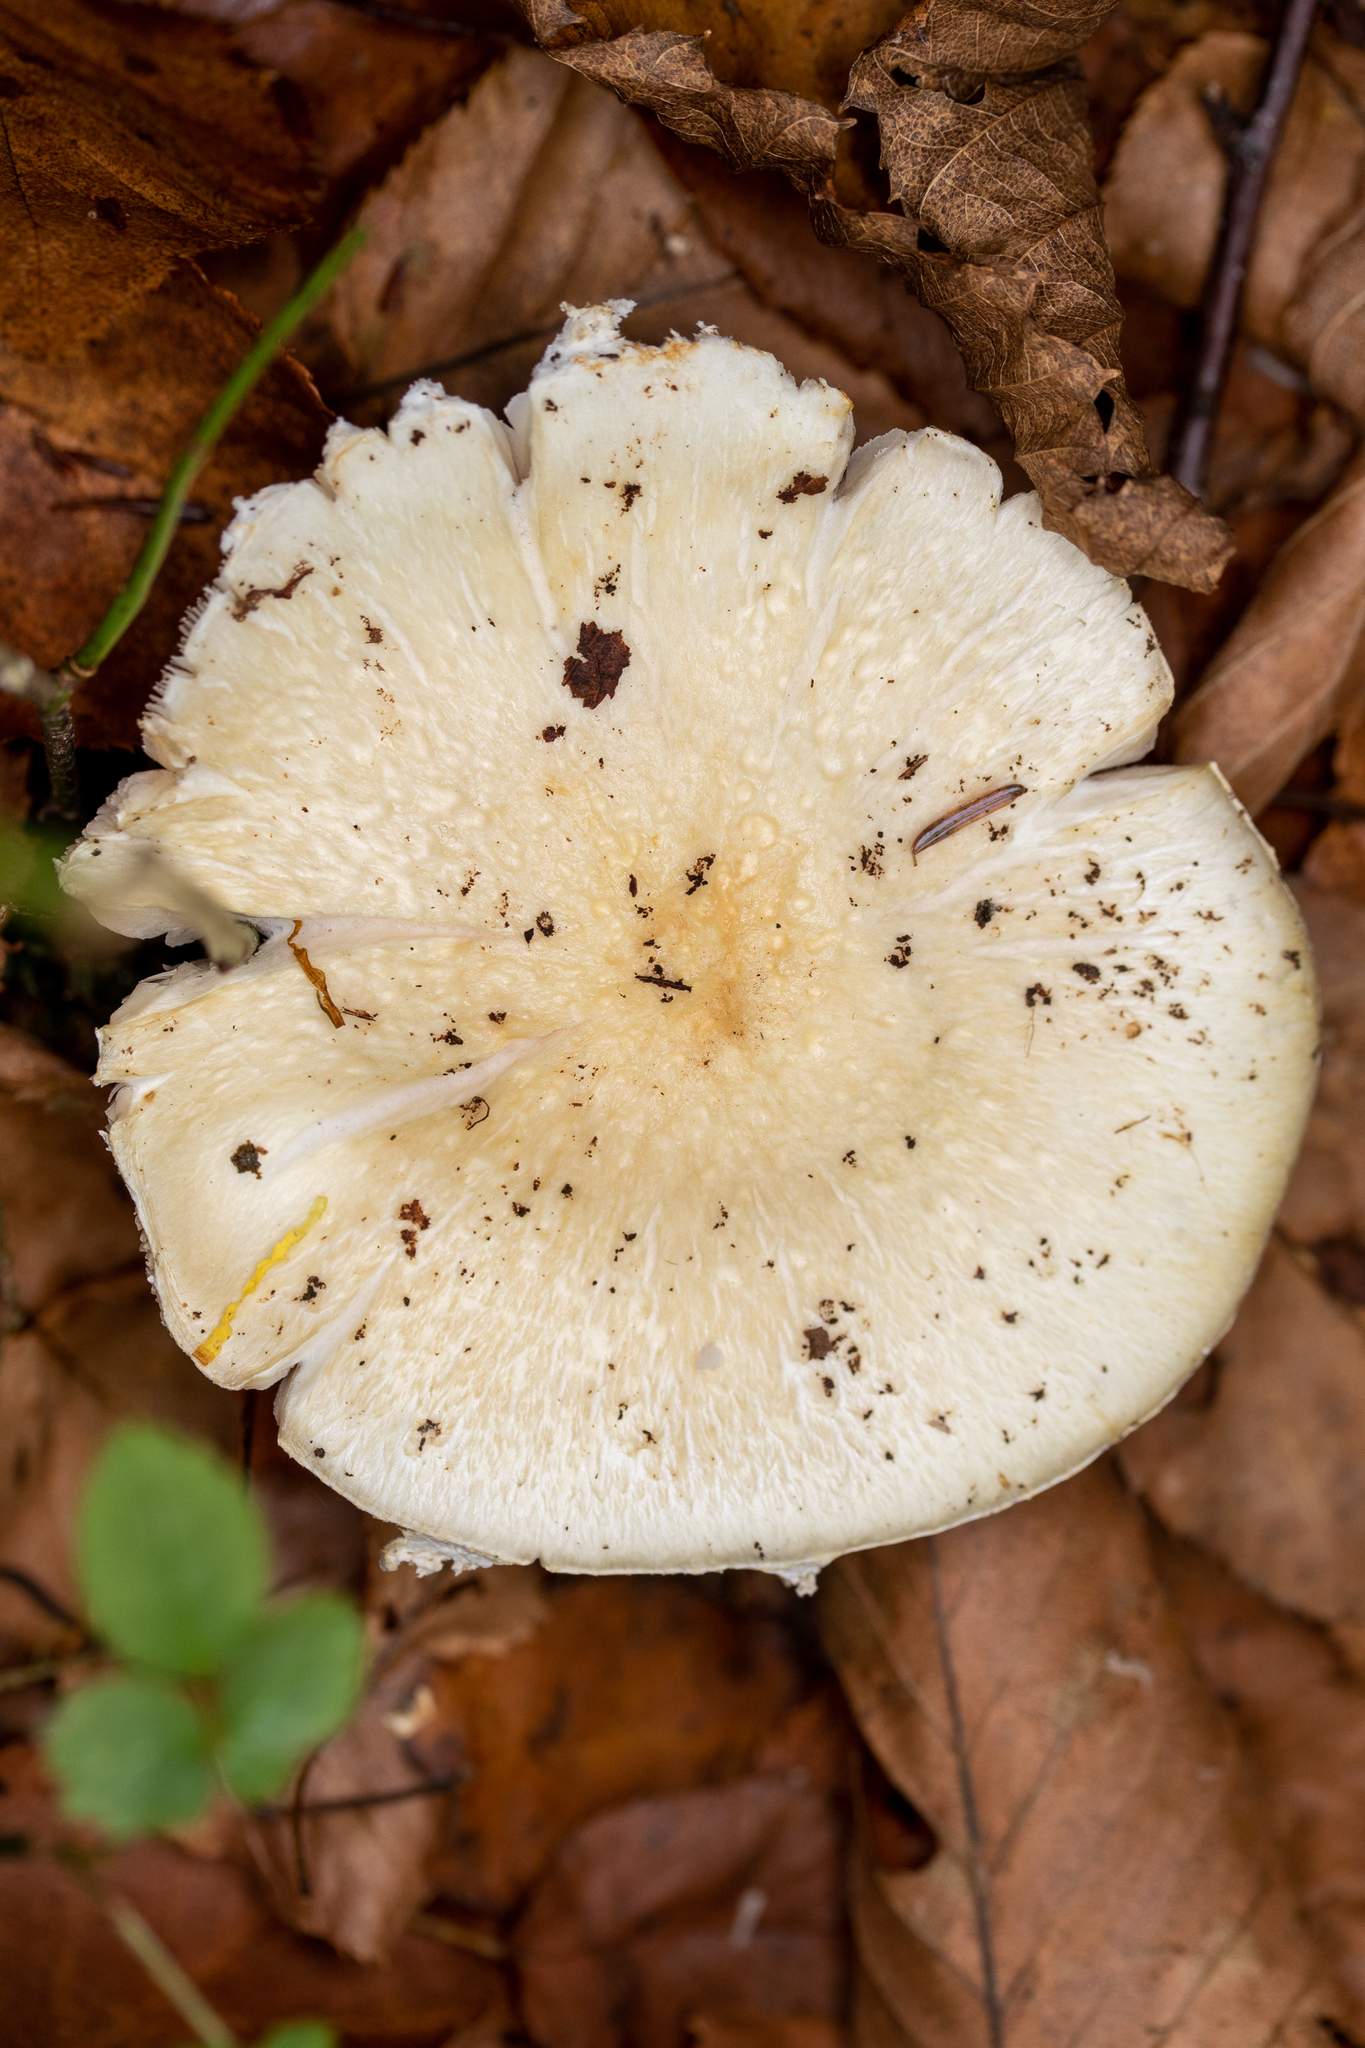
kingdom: Fungi
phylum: Basidiomycota
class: Agaricomycetes
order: Agaricales
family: Strophariaceae
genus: Stropharia
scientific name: Stropharia hardii
